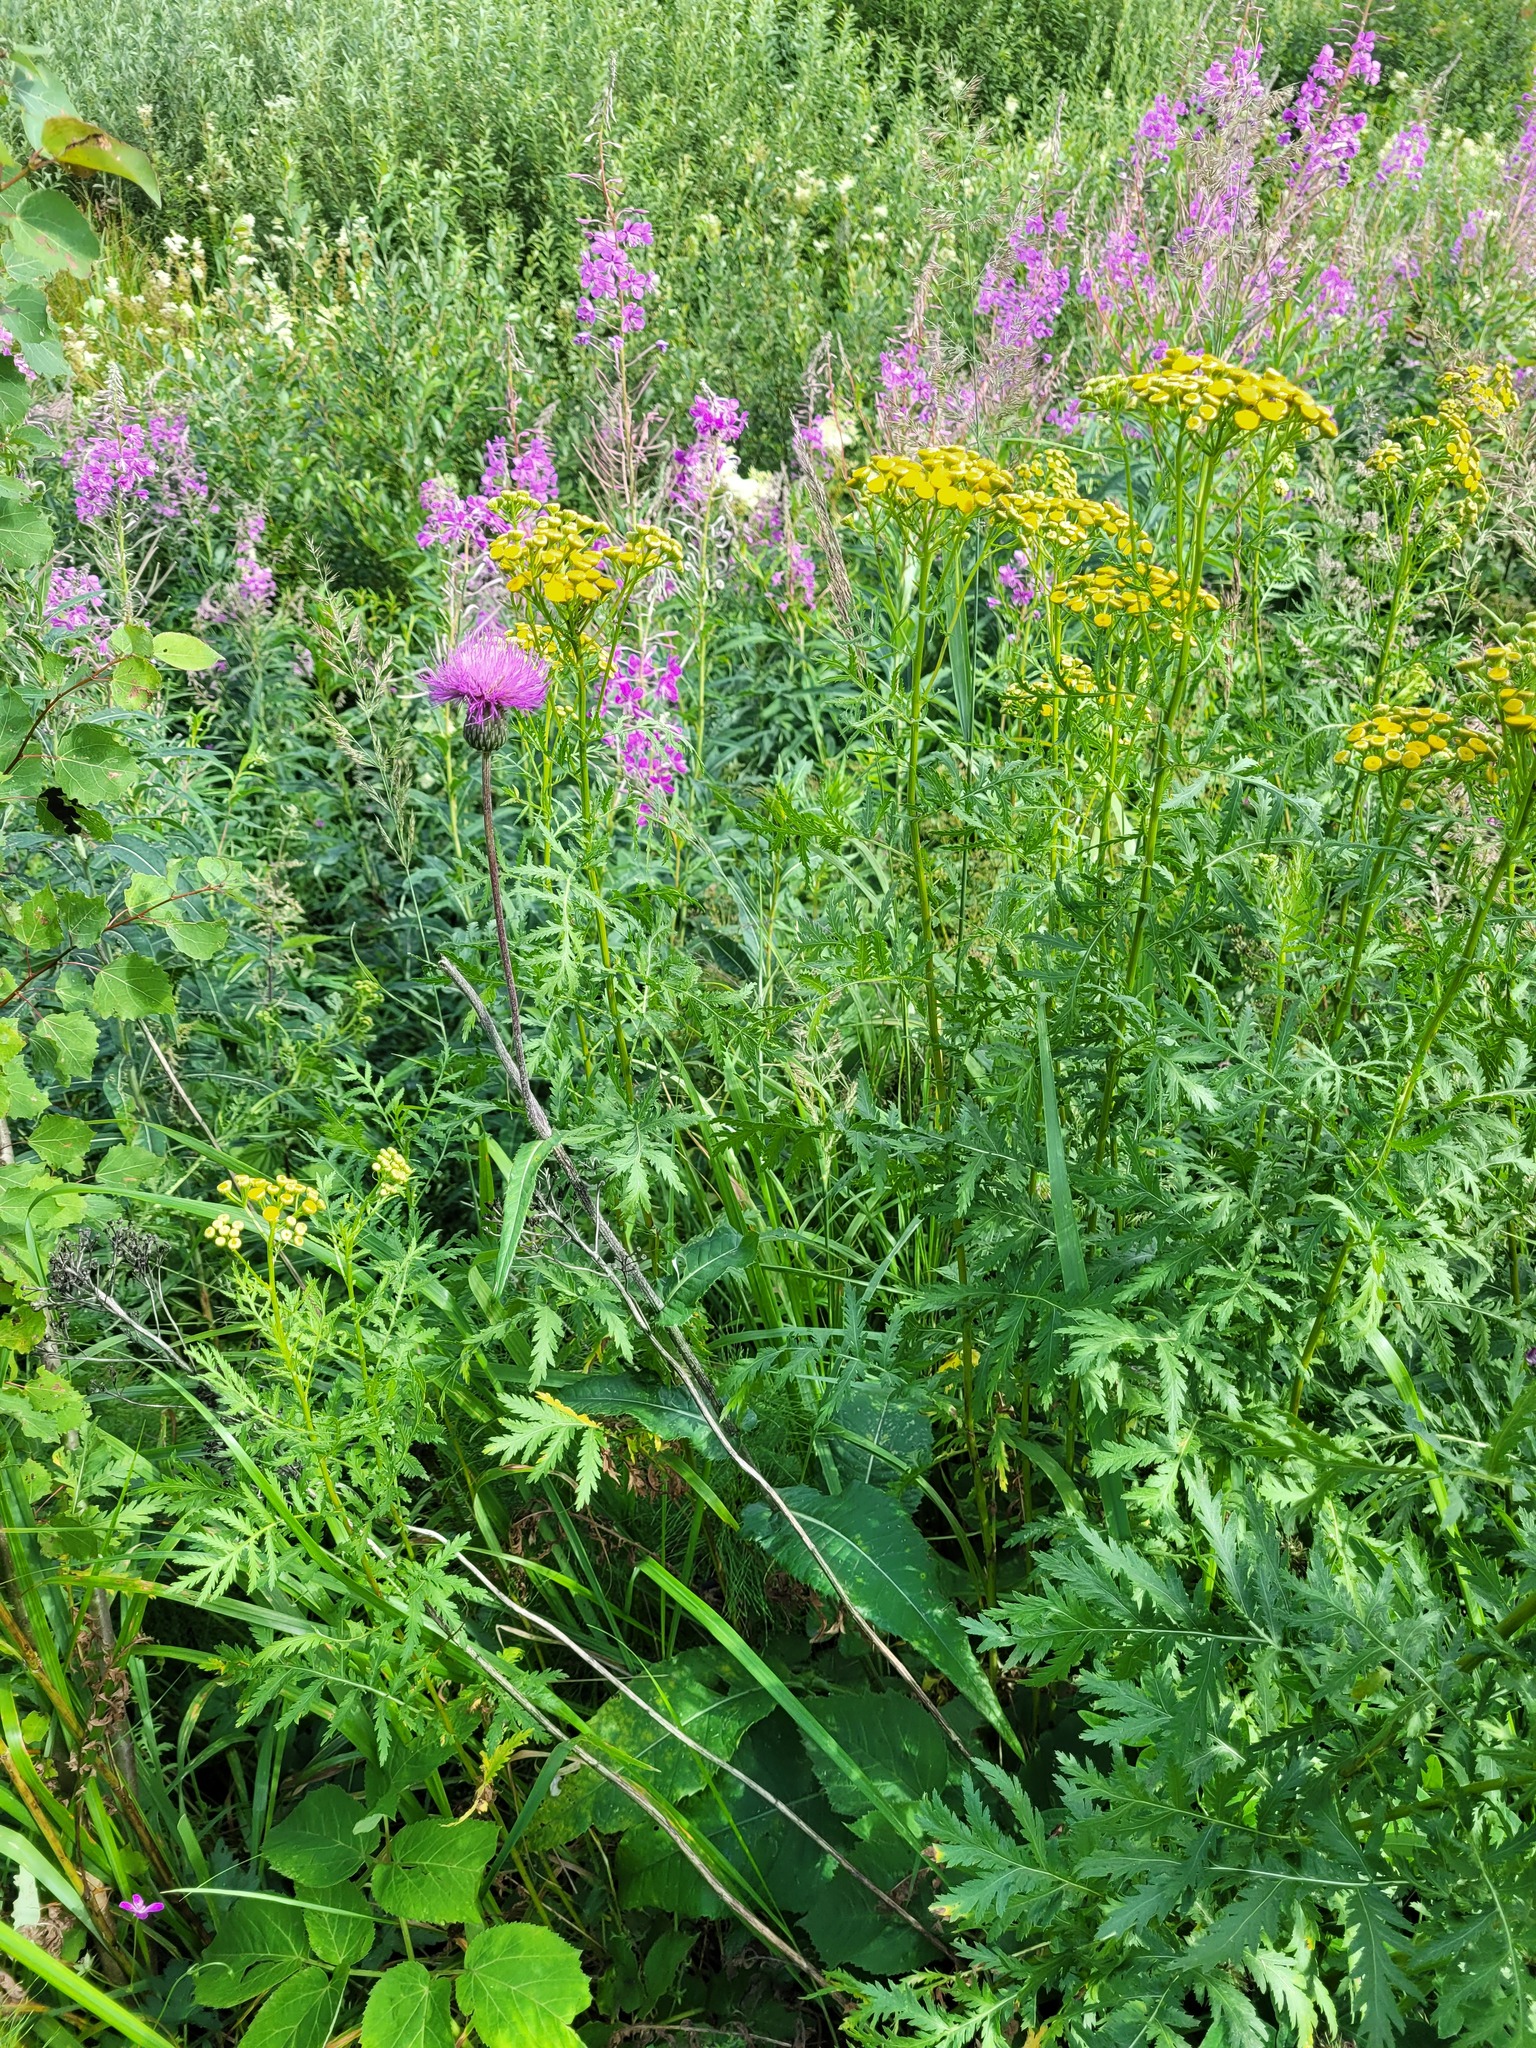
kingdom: Plantae
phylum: Tracheophyta
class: Magnoliopsida
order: Asterales
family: Asteraceae
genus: Cirsium
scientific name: Cirsium heterophyllum
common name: Melancholy thistle
